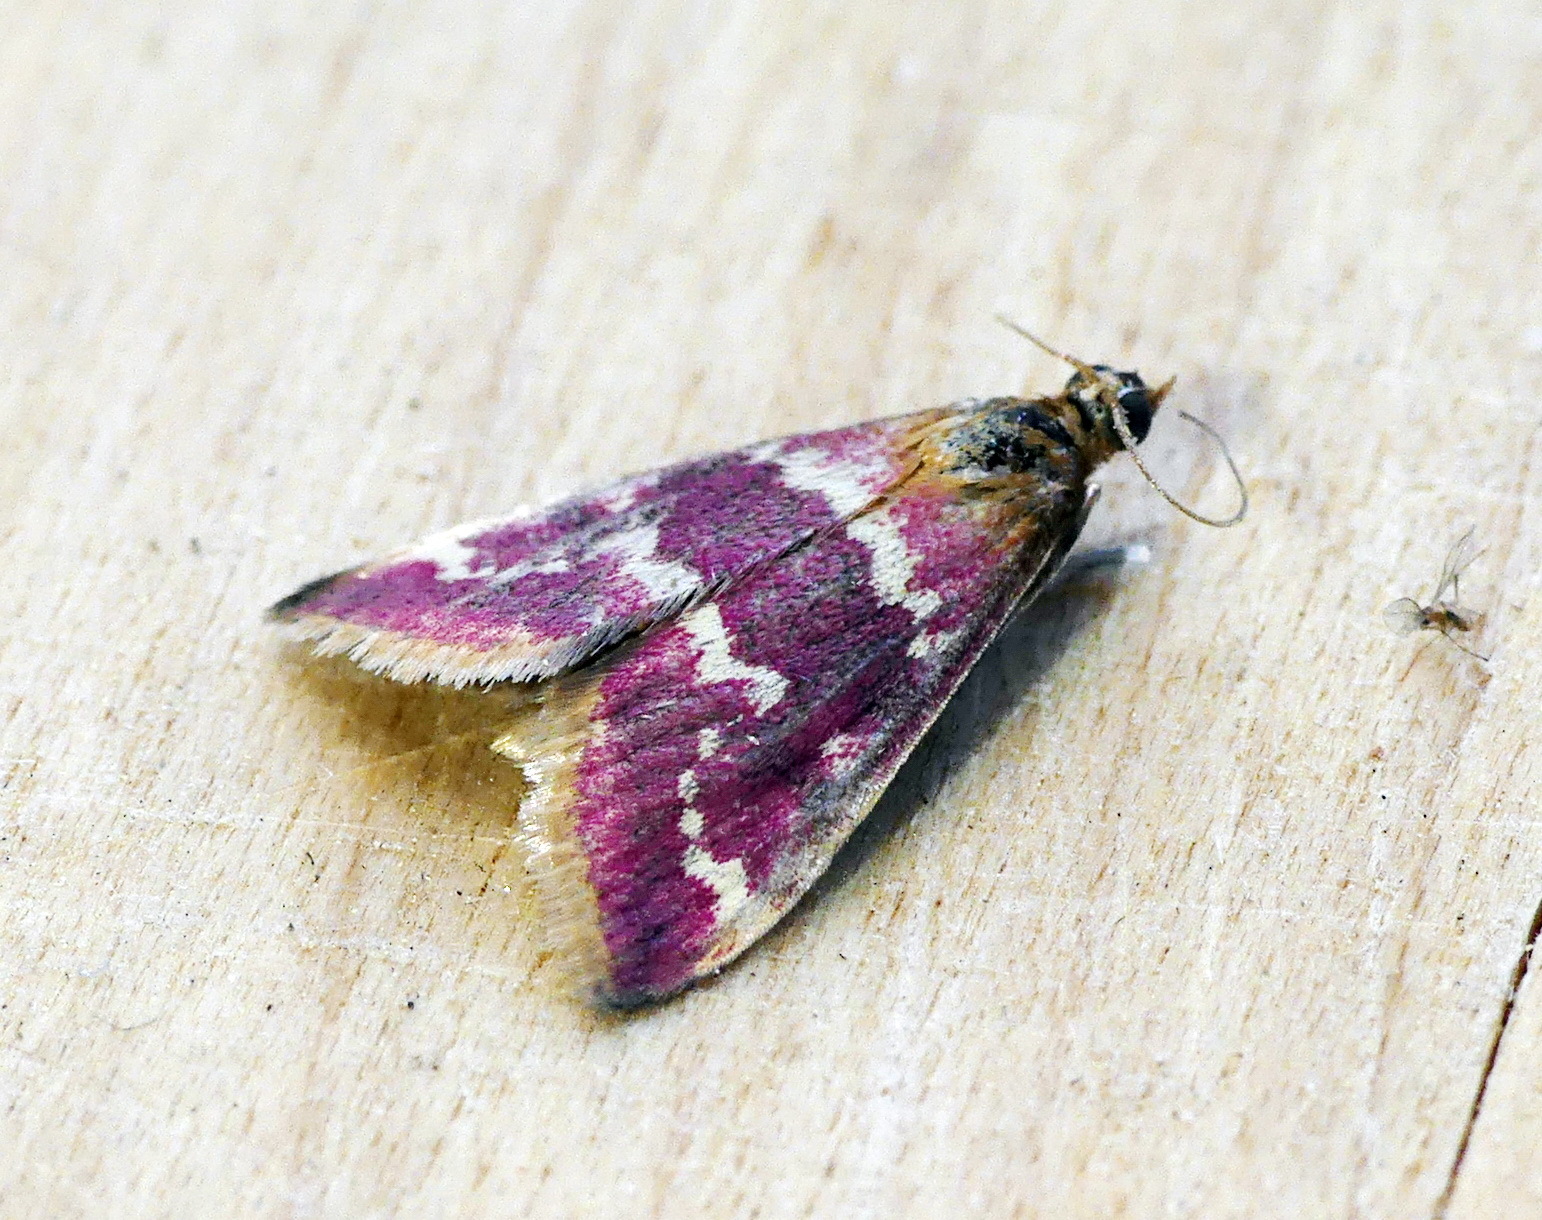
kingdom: Animalia
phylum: Arthropoda
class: Insecta
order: Lepidoptera
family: Crambidae
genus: Pyrausta
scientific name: Pyrausta signatalis
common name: Raspberry pyrausta moth
